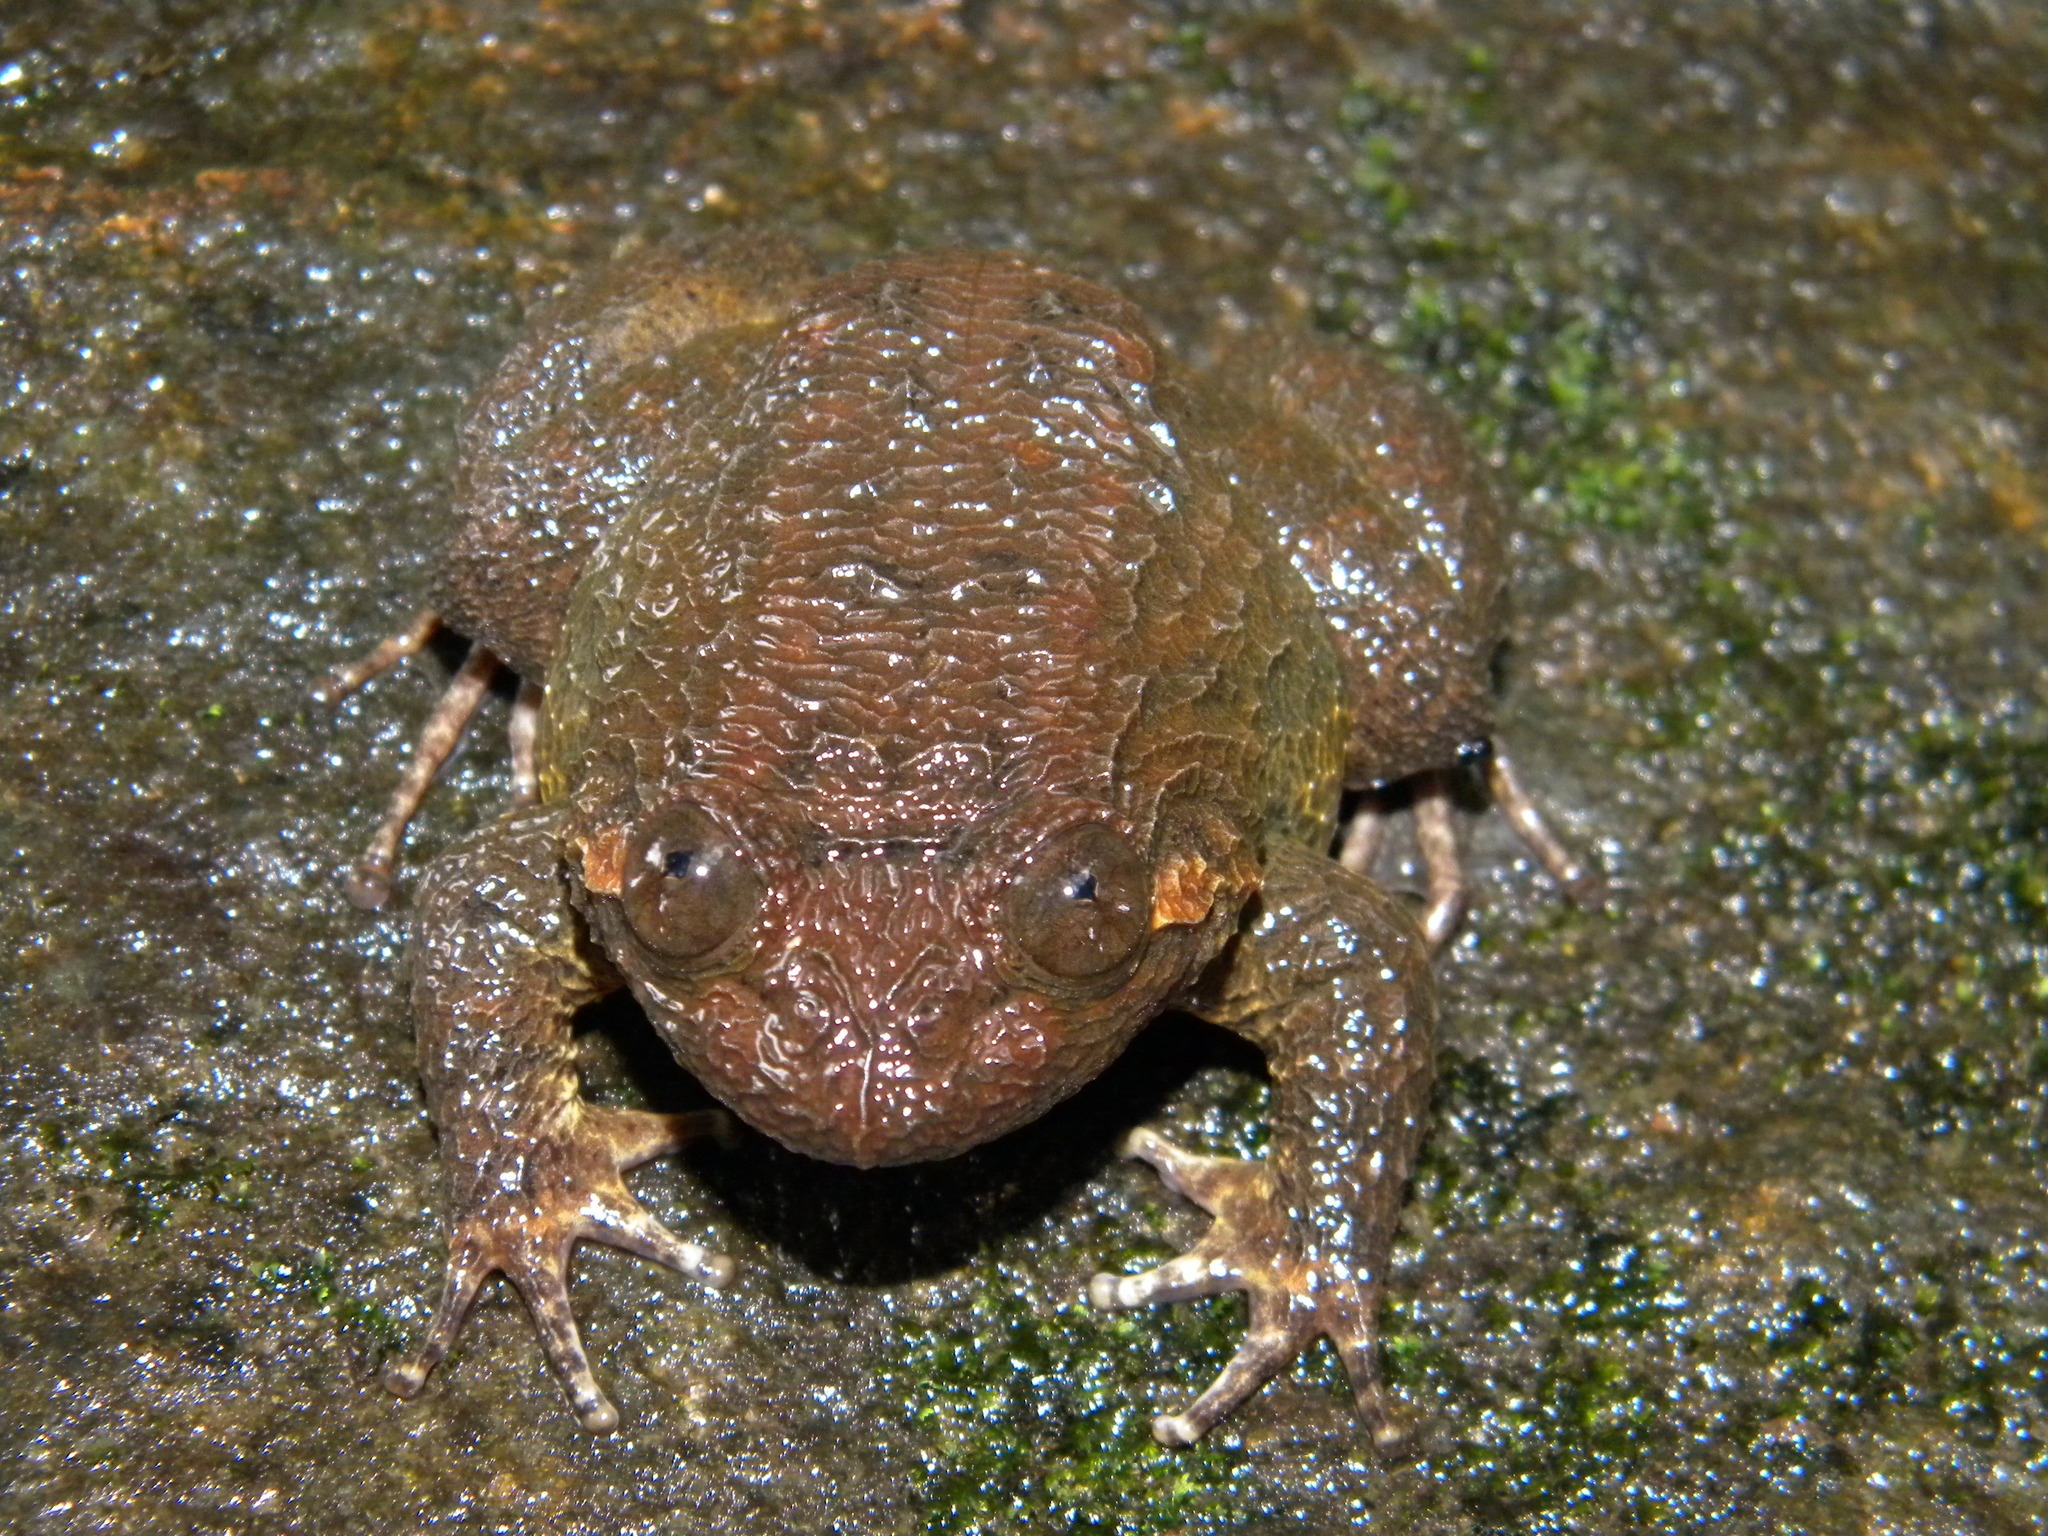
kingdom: Animalia
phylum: Chordata
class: Amphibia
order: Anura
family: Nyctibatrachidae
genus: Nyctibatrachus
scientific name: Nyctibatrachus major
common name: Large wrinkled frog
